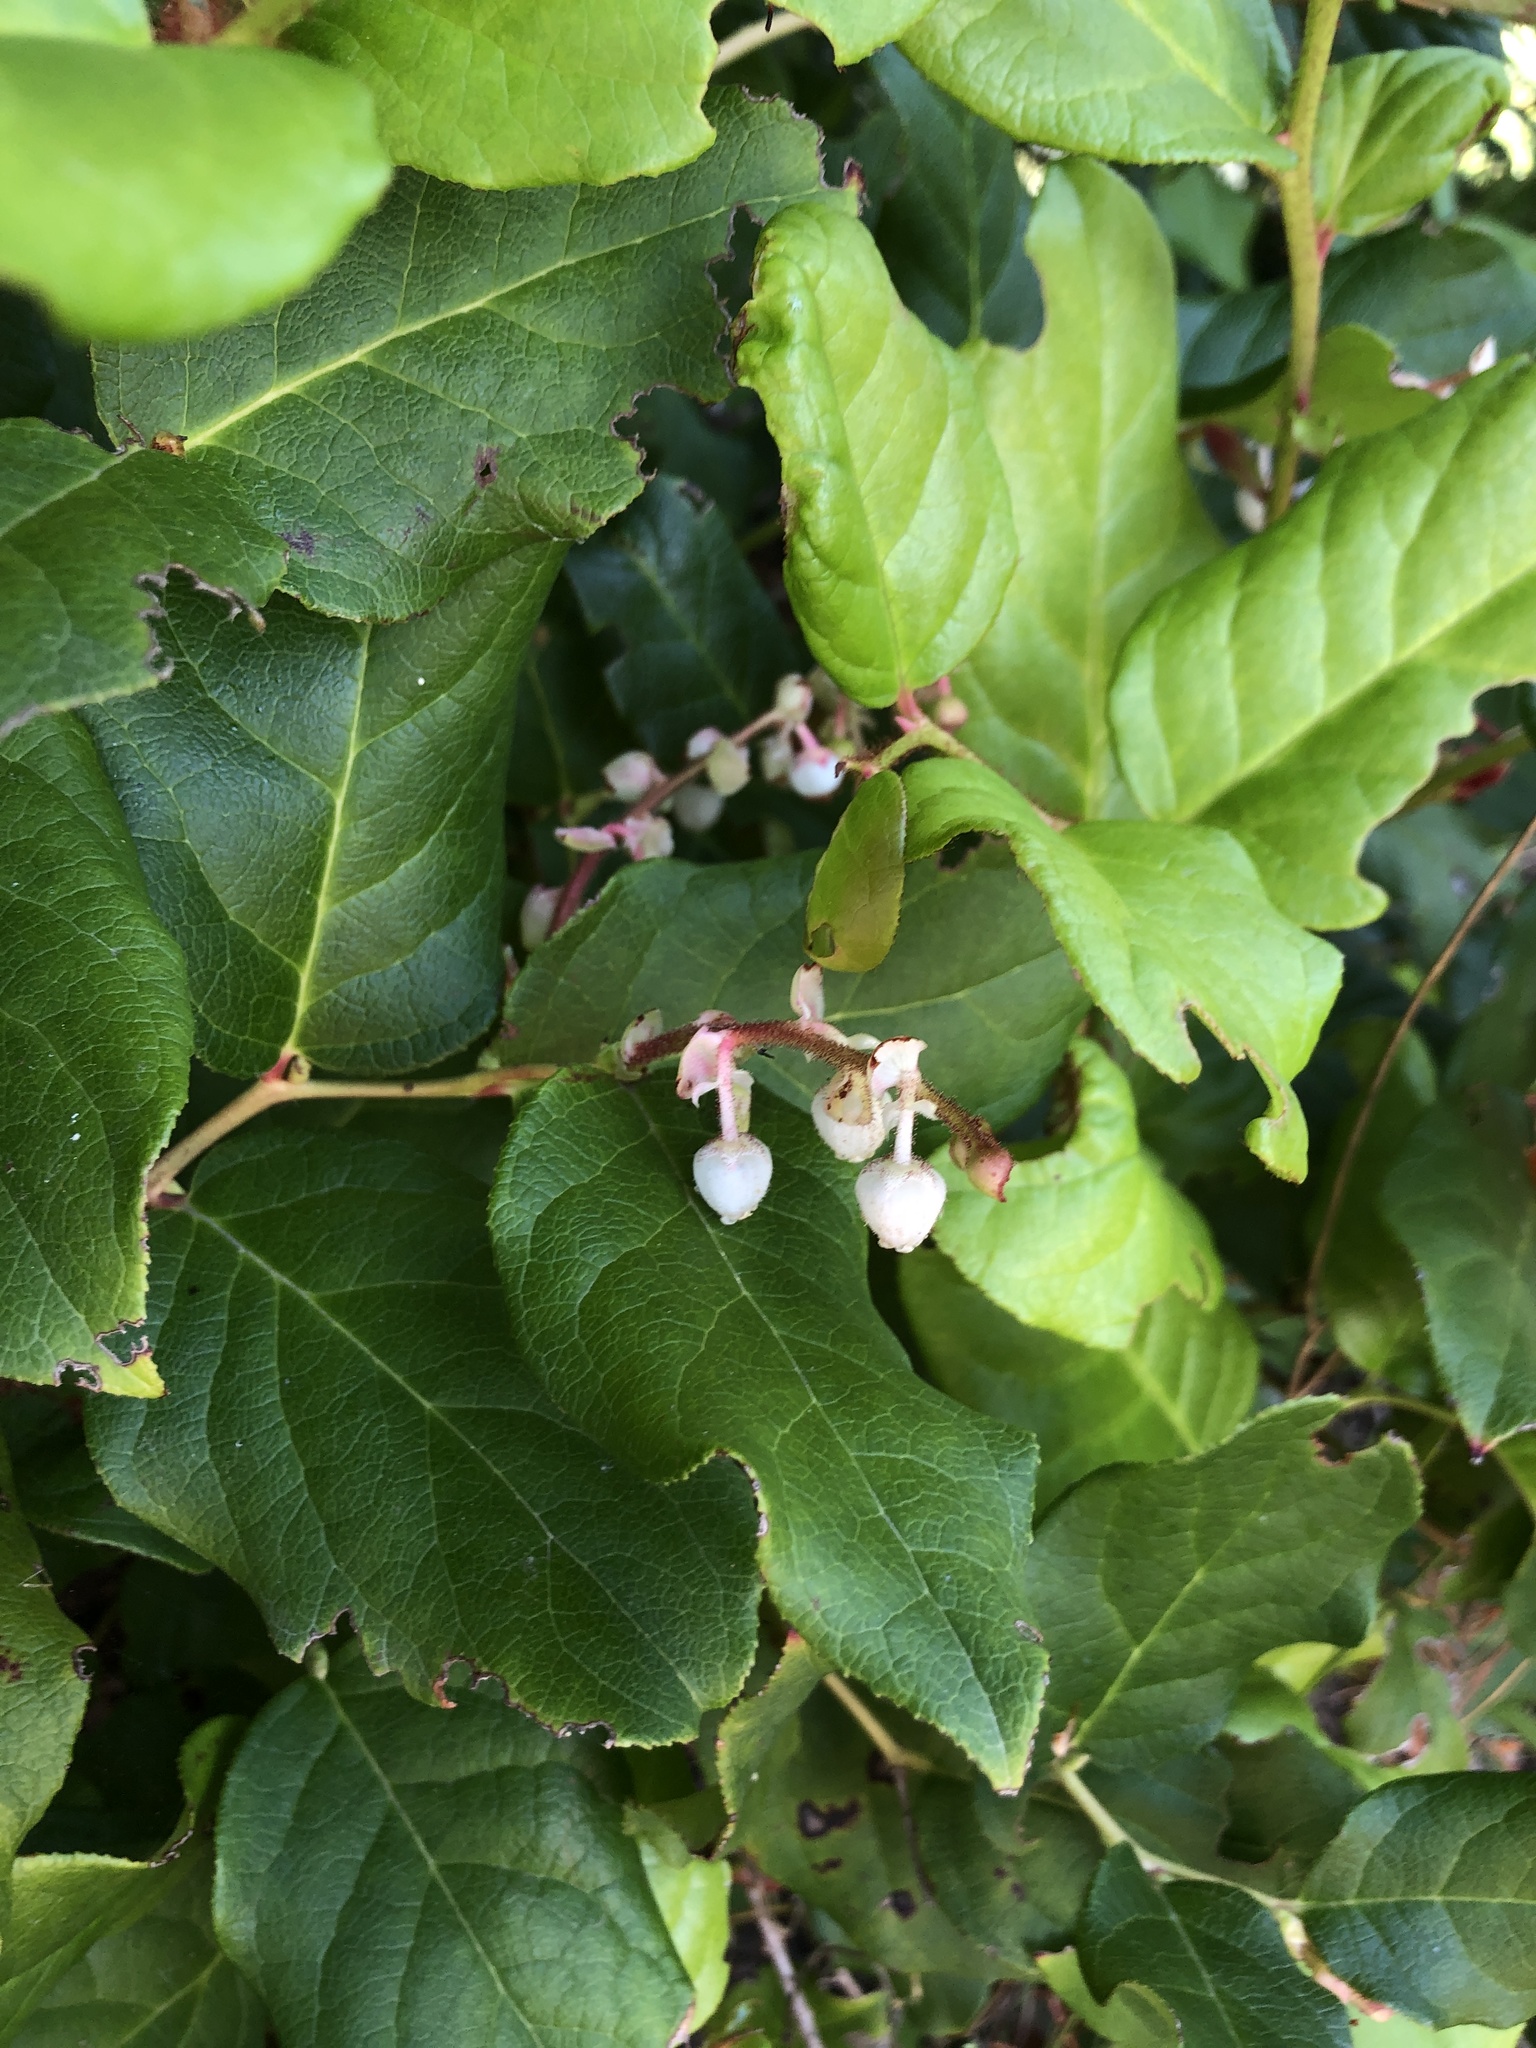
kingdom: Plantae
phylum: Tracheophyta
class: Magnoliopsida
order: Ericales
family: Ericaceae
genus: Gaultheria
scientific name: Gaultheria shallon
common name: Shallon
